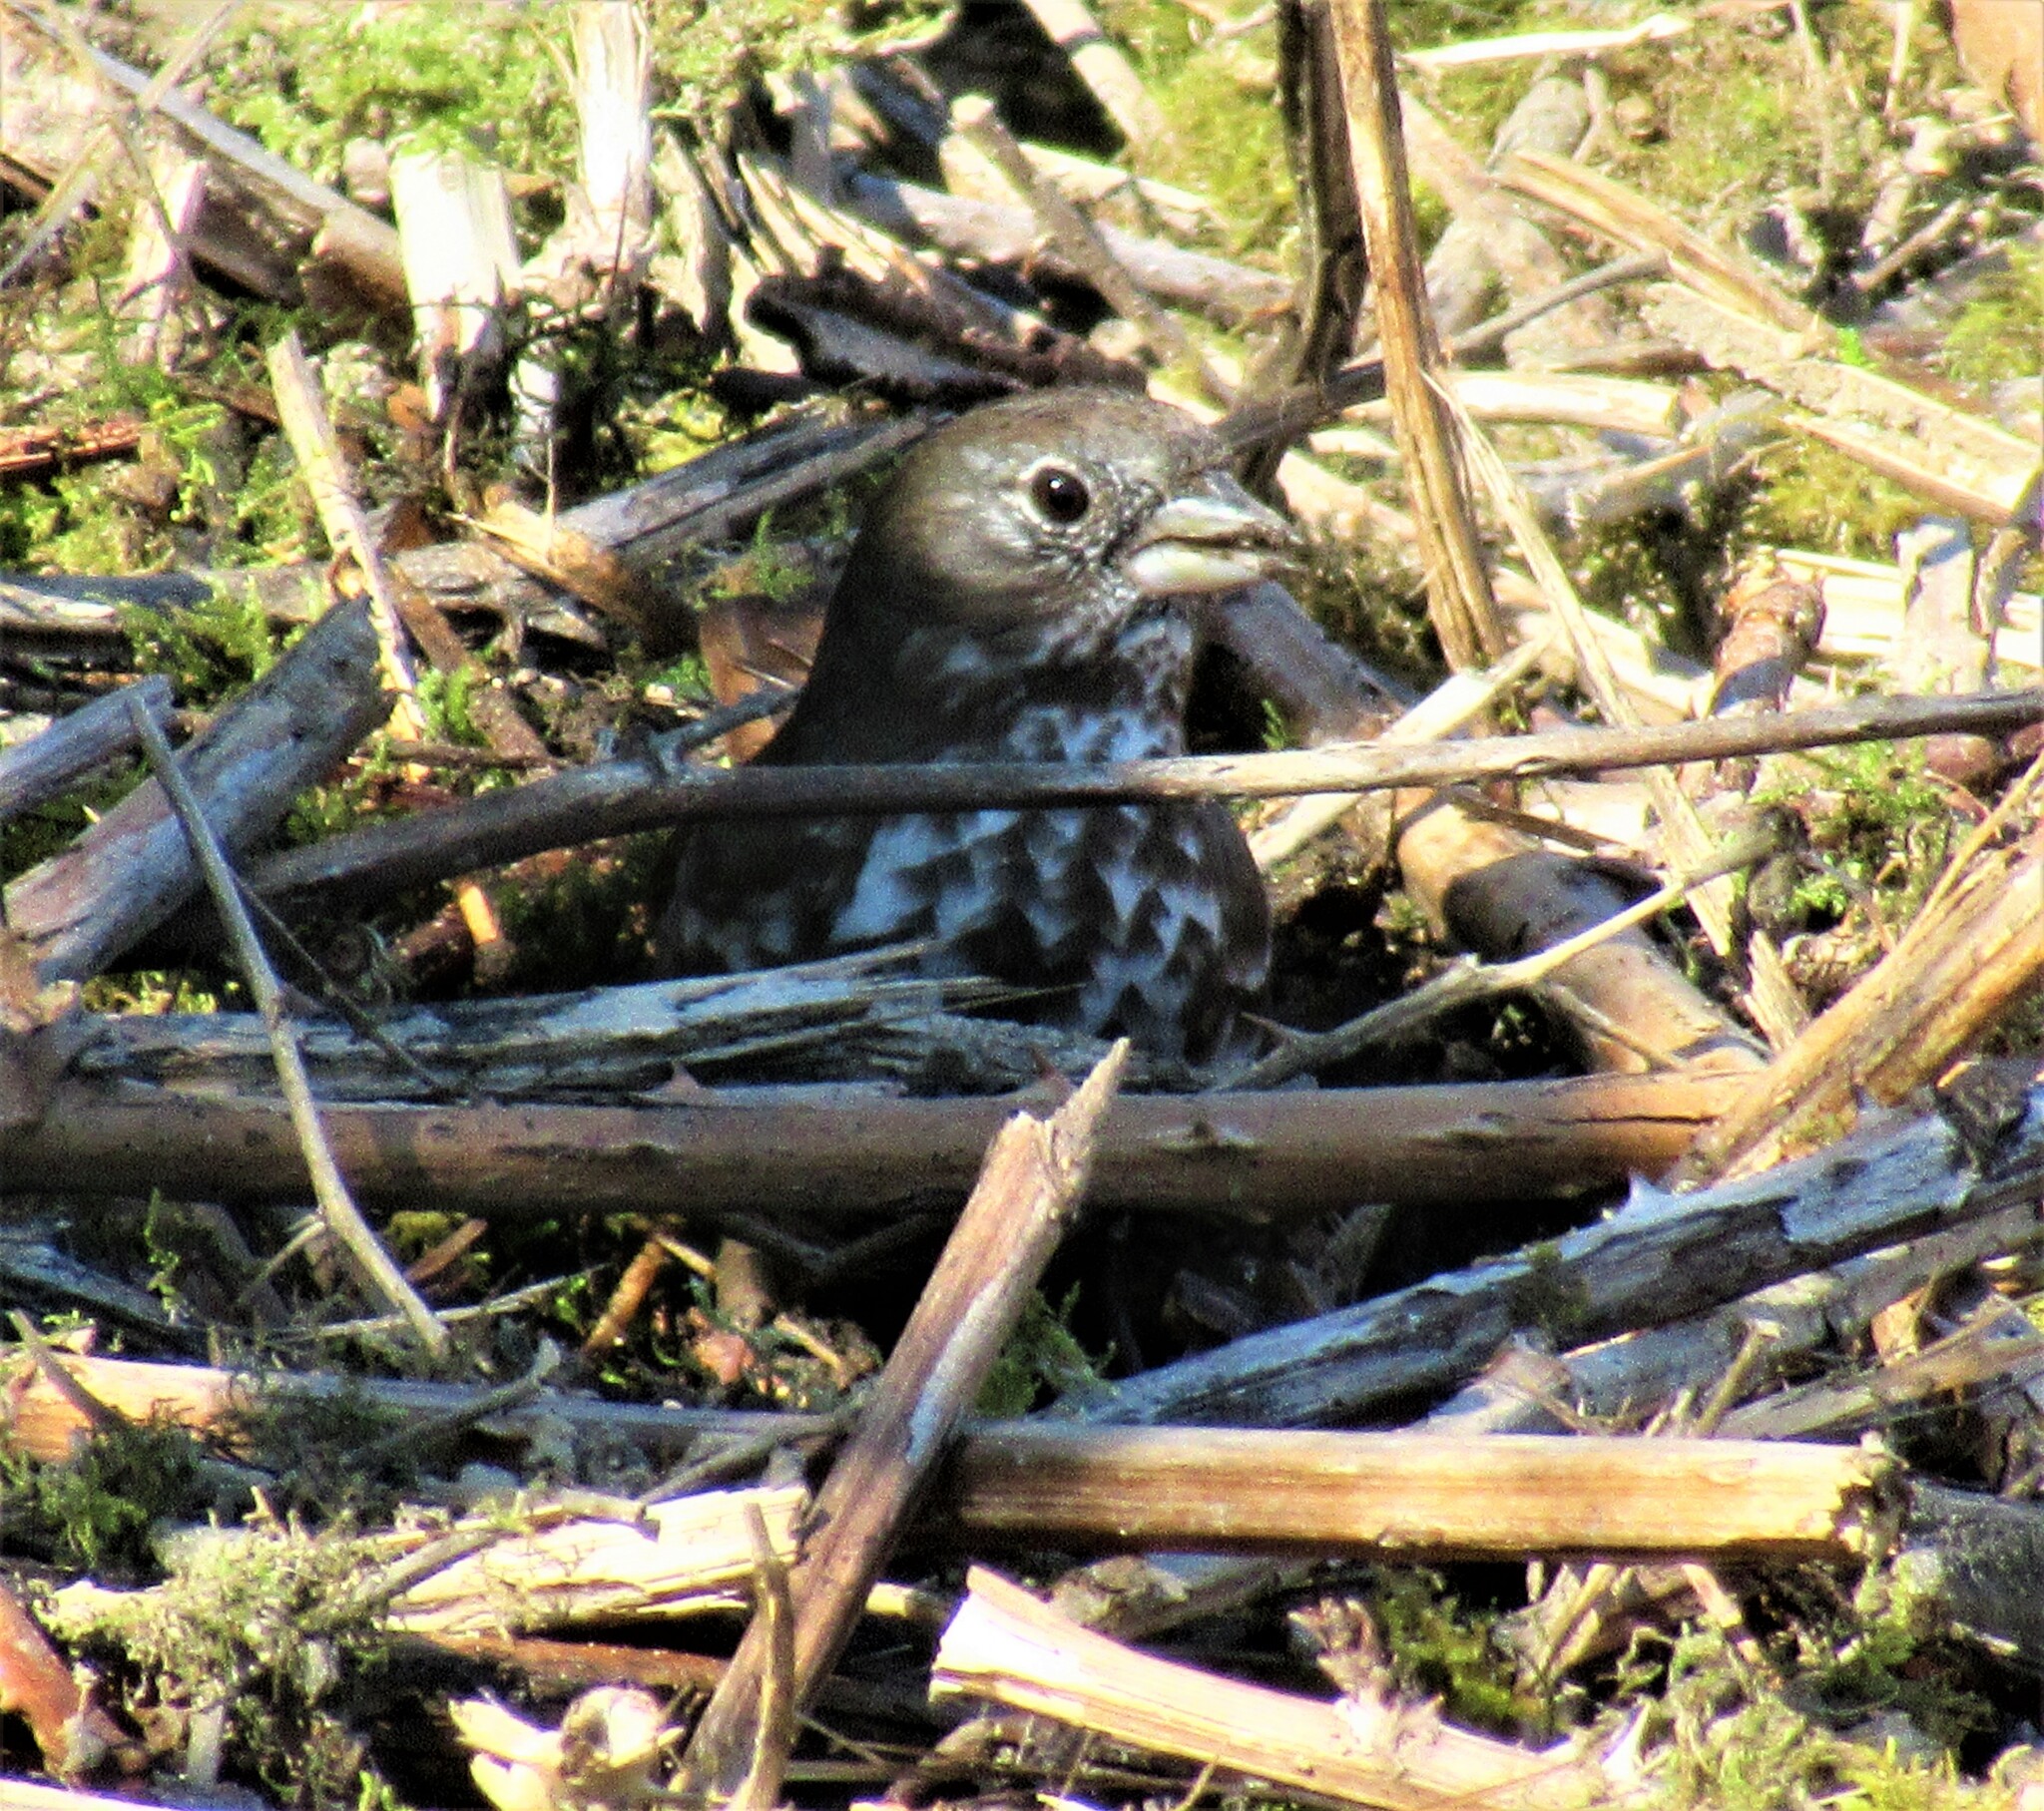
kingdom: Animalia
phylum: Chordata
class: Aves
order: Passeriformes
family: Passerellidae
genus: Passerella
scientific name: Passerella iliaca
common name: Fox sparrow
